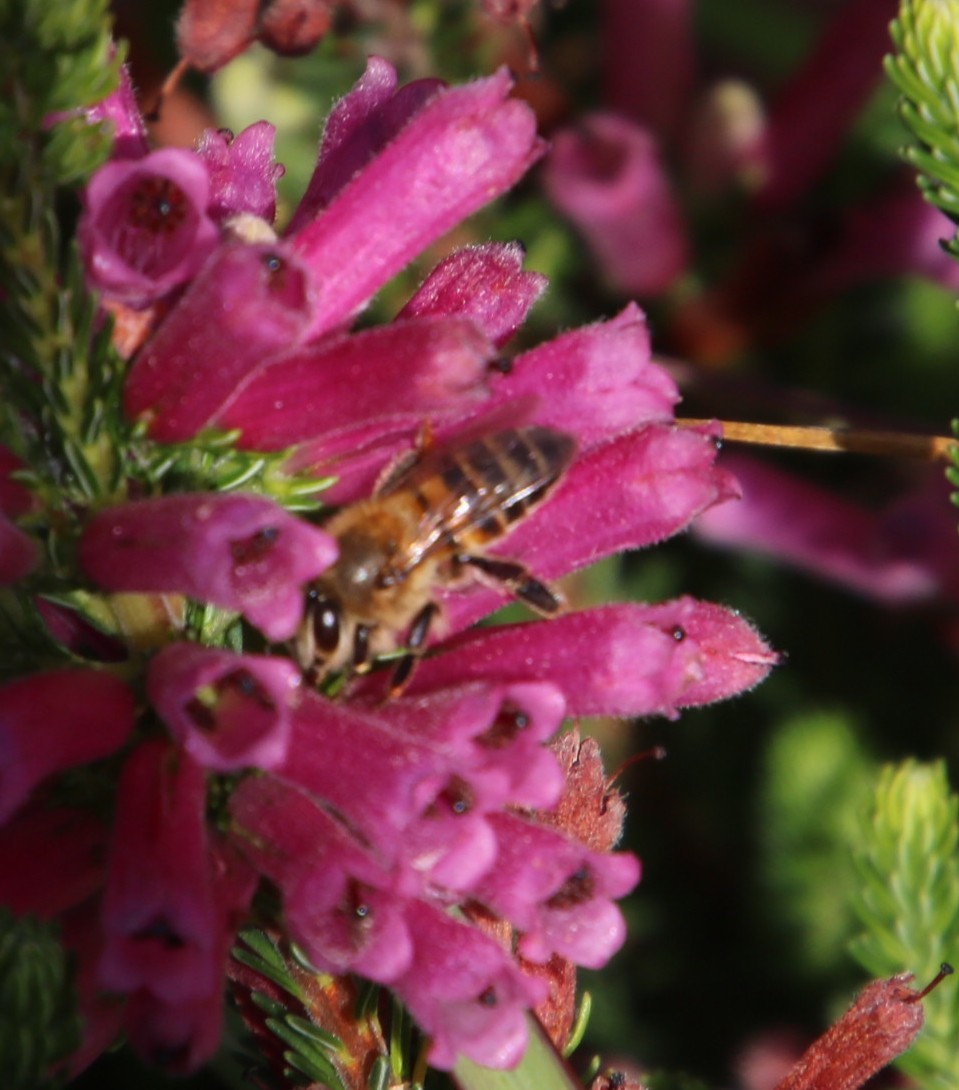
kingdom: Animalia
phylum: Arthropoda
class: Insecta
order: Hymenoptera
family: Apidae
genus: Apis
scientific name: Apis mellifera
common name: Honey bee
